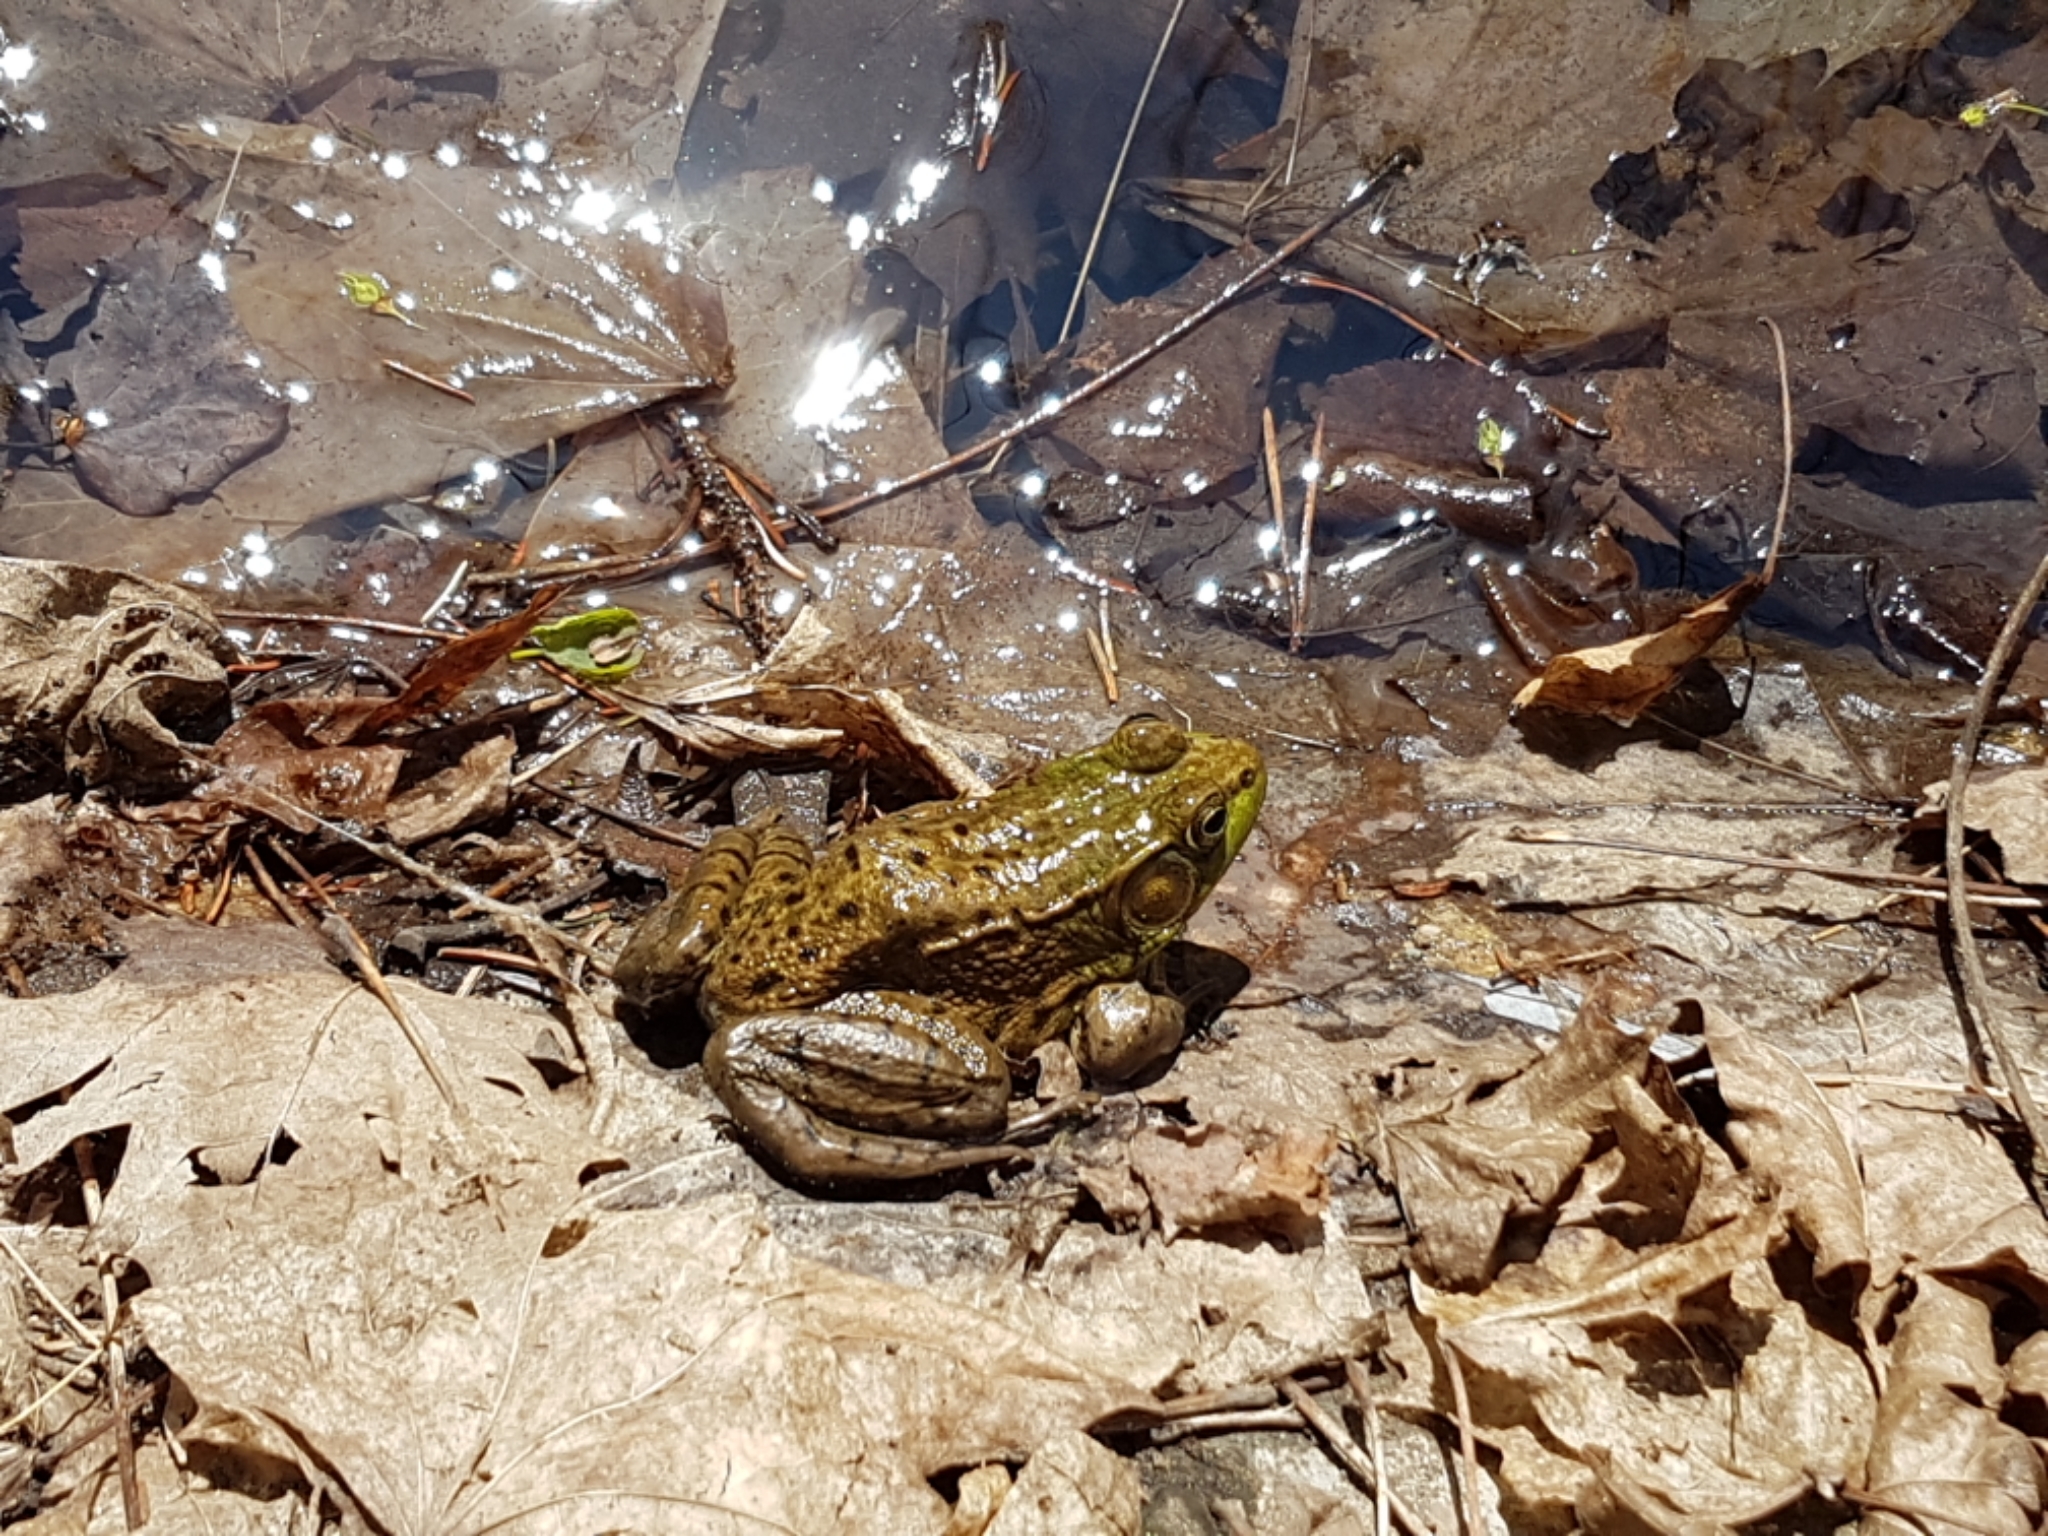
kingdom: Animalia
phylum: Chordata
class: Amphibia
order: Anura
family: Ranidae
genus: Lithobates
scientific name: Lithobates clamitans
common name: Green frog
